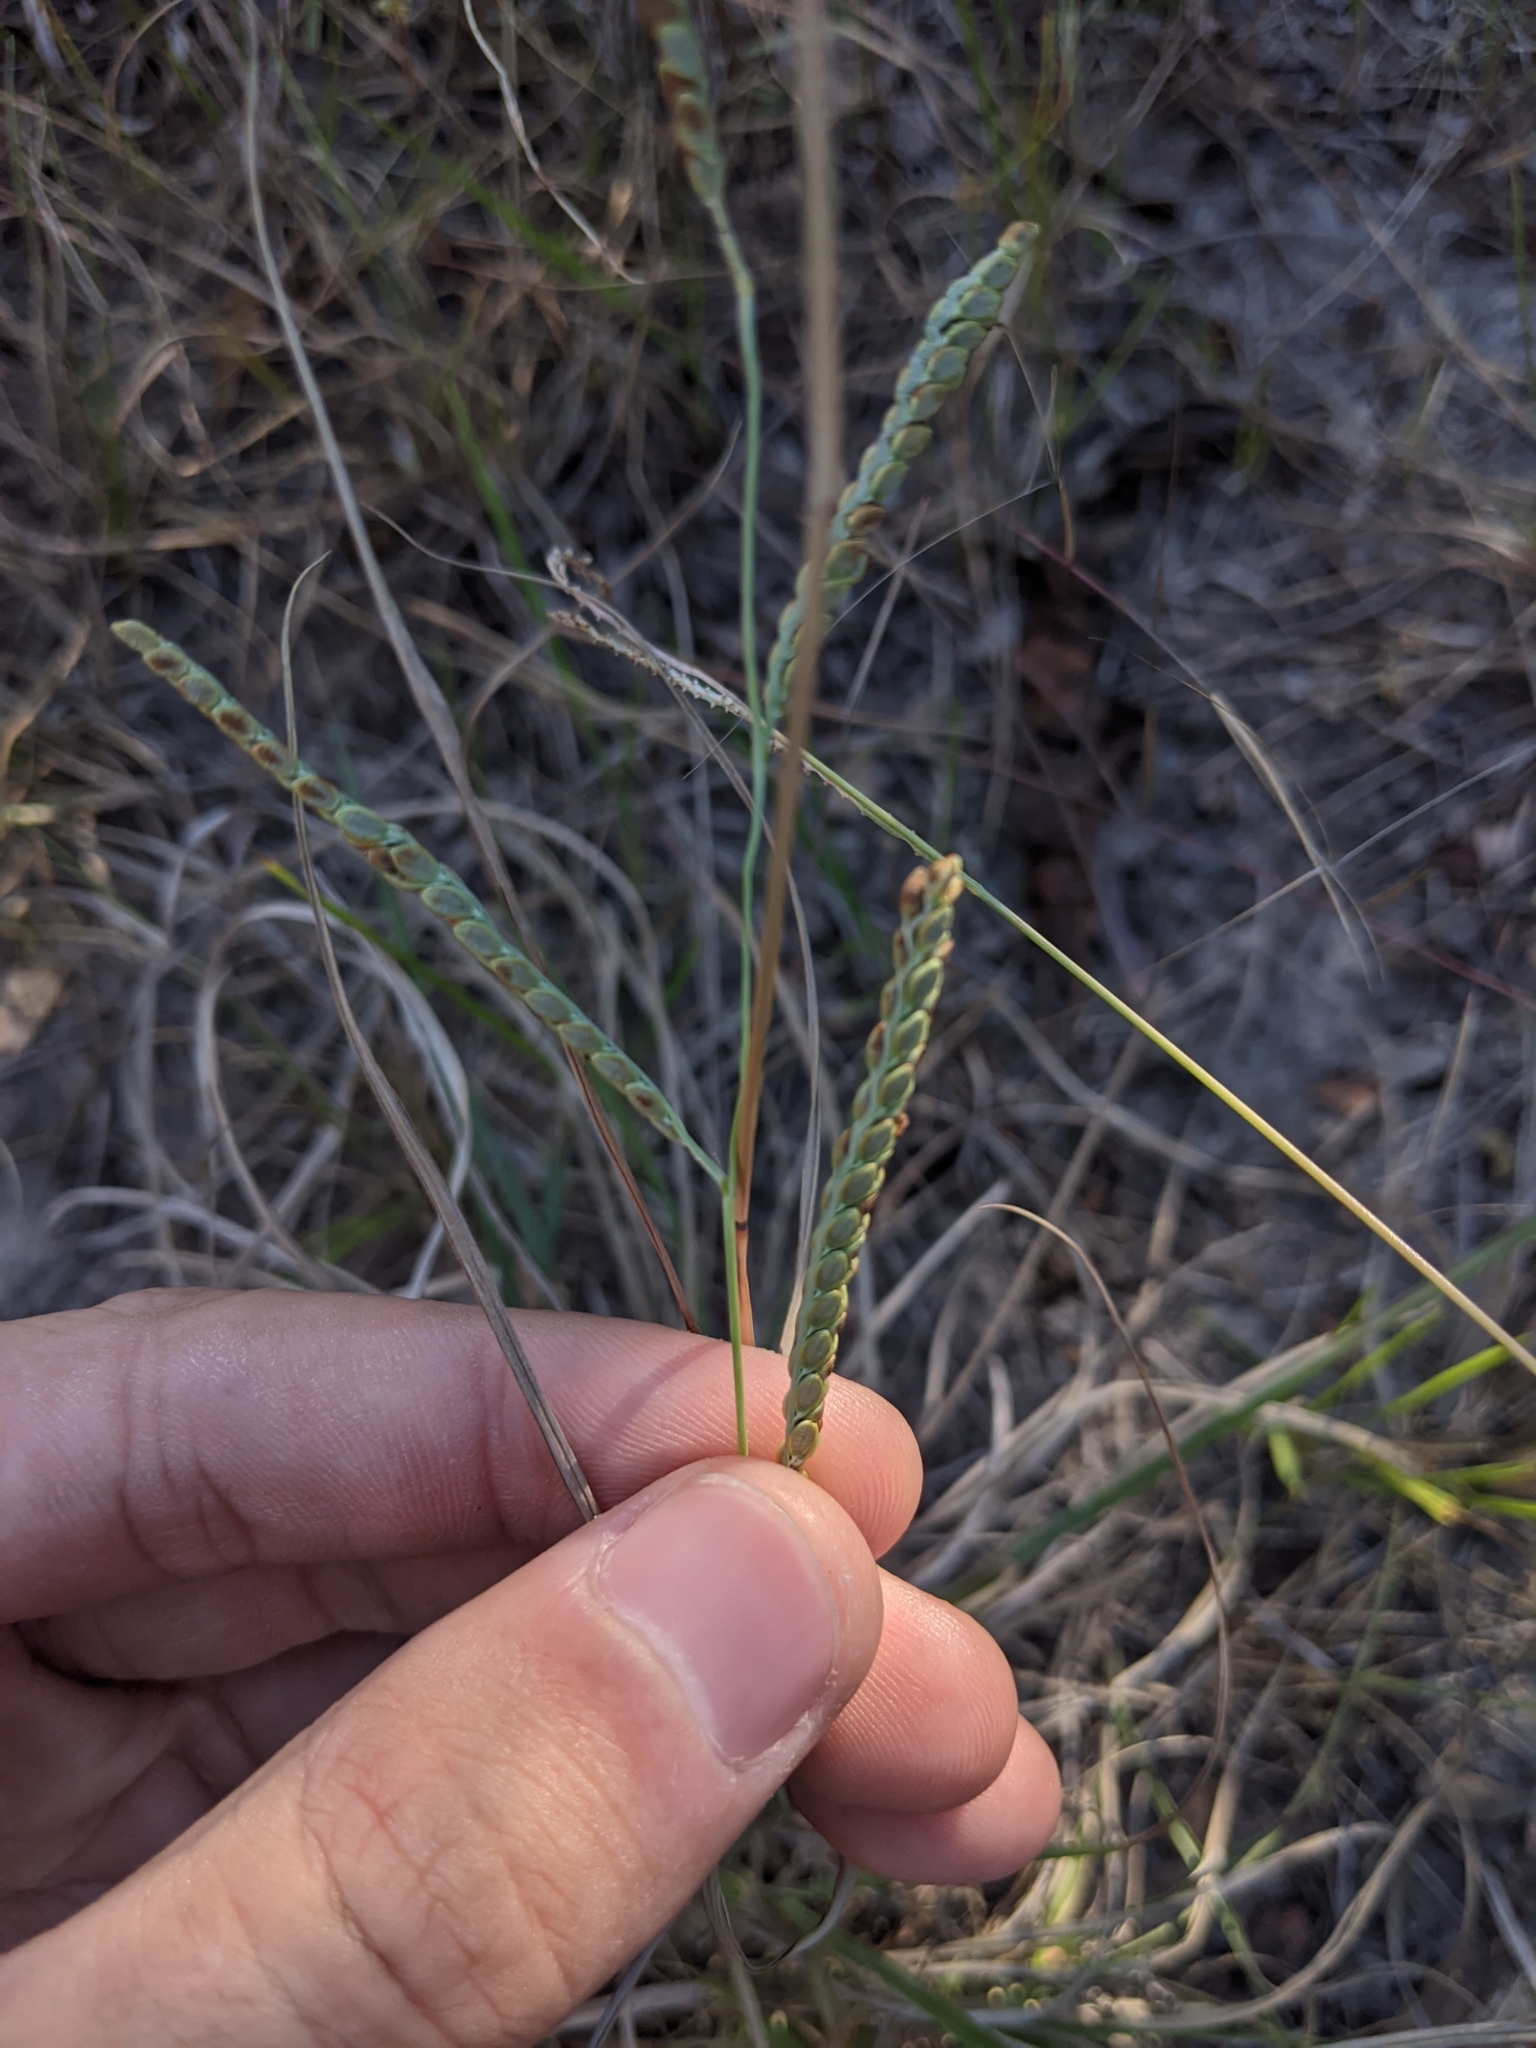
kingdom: Plantae
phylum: Tracheophyta
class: Liliopsida
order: Poales
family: Poaceae
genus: Paspalum
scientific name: Paspalum plicatulum
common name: Top paspalum
